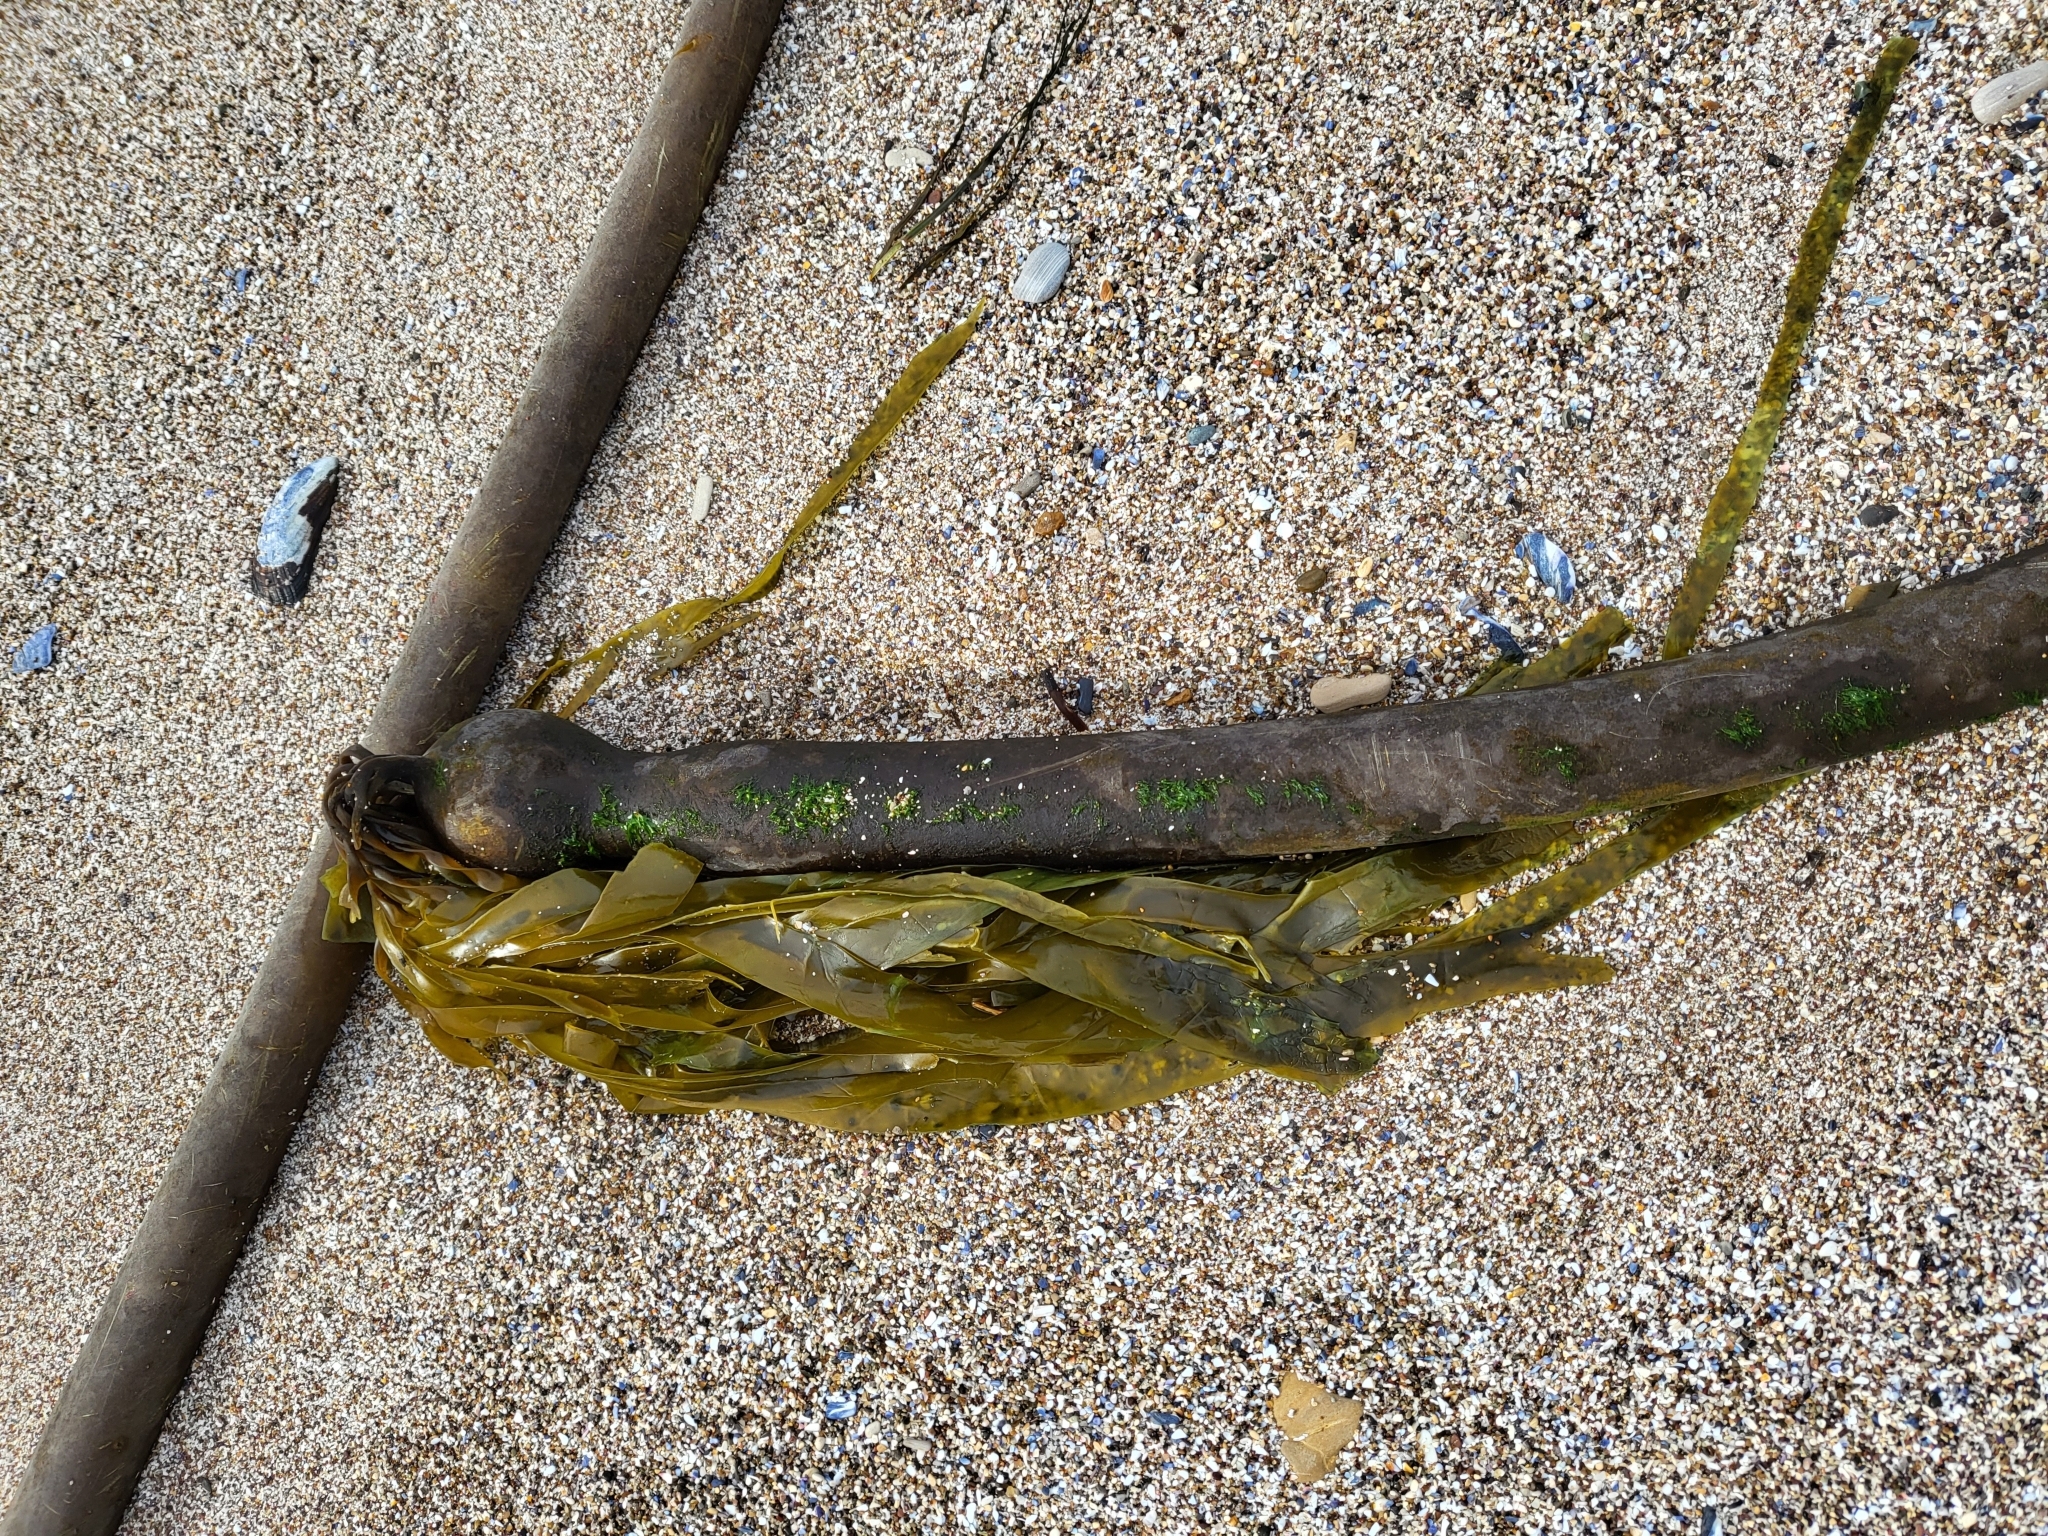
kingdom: Chromista
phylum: Ochrophyta
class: Phaeophyceae
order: Laminariales
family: Laminariaceae
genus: Nereocystis
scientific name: Nereocystis luetkeana
